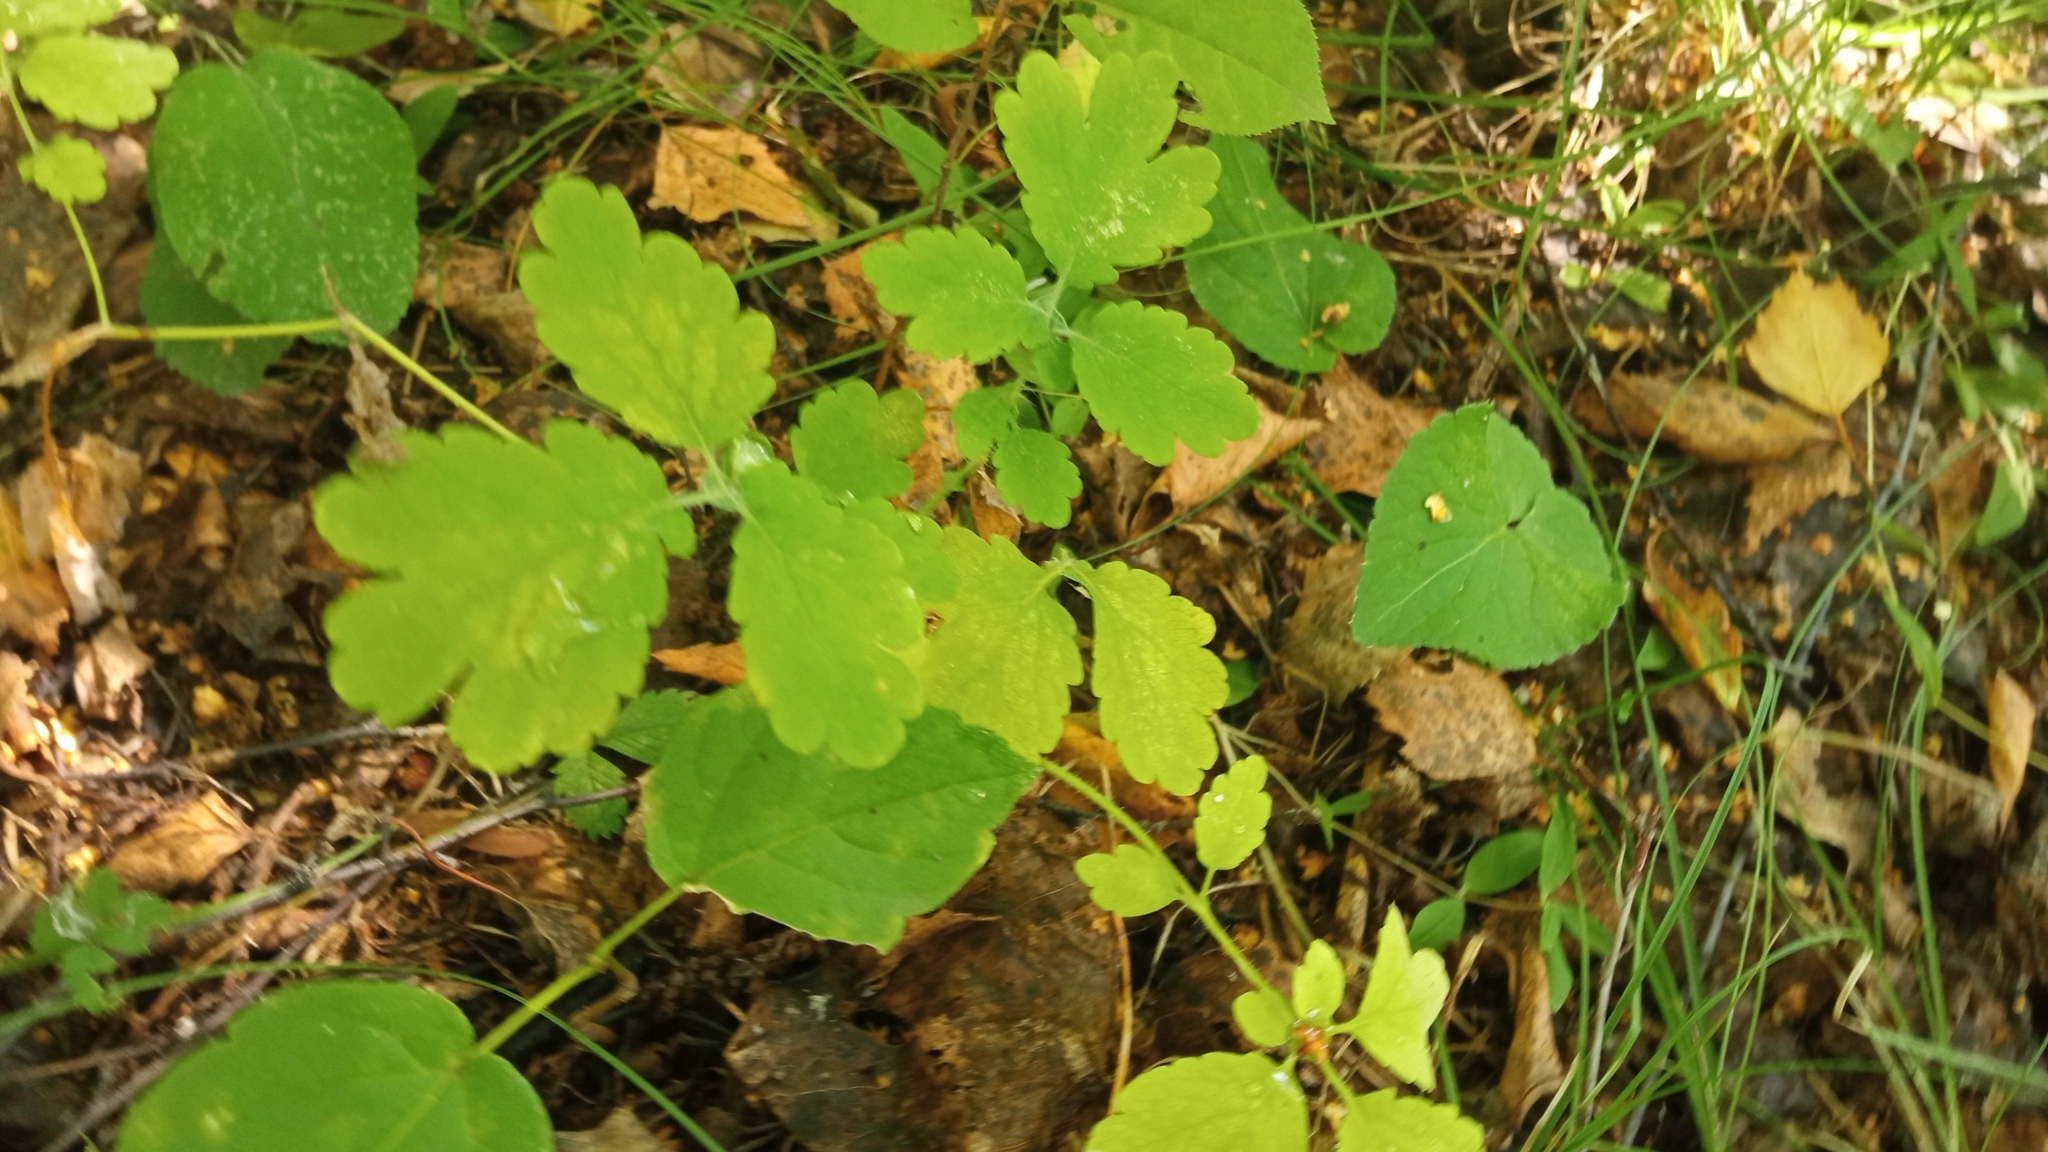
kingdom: Plantae
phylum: Tracheophyta
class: Magnoliopsida
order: Ranunculales
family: Papaveraceae
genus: Chelidonium
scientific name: Chelidonium majus
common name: Greater celandine
